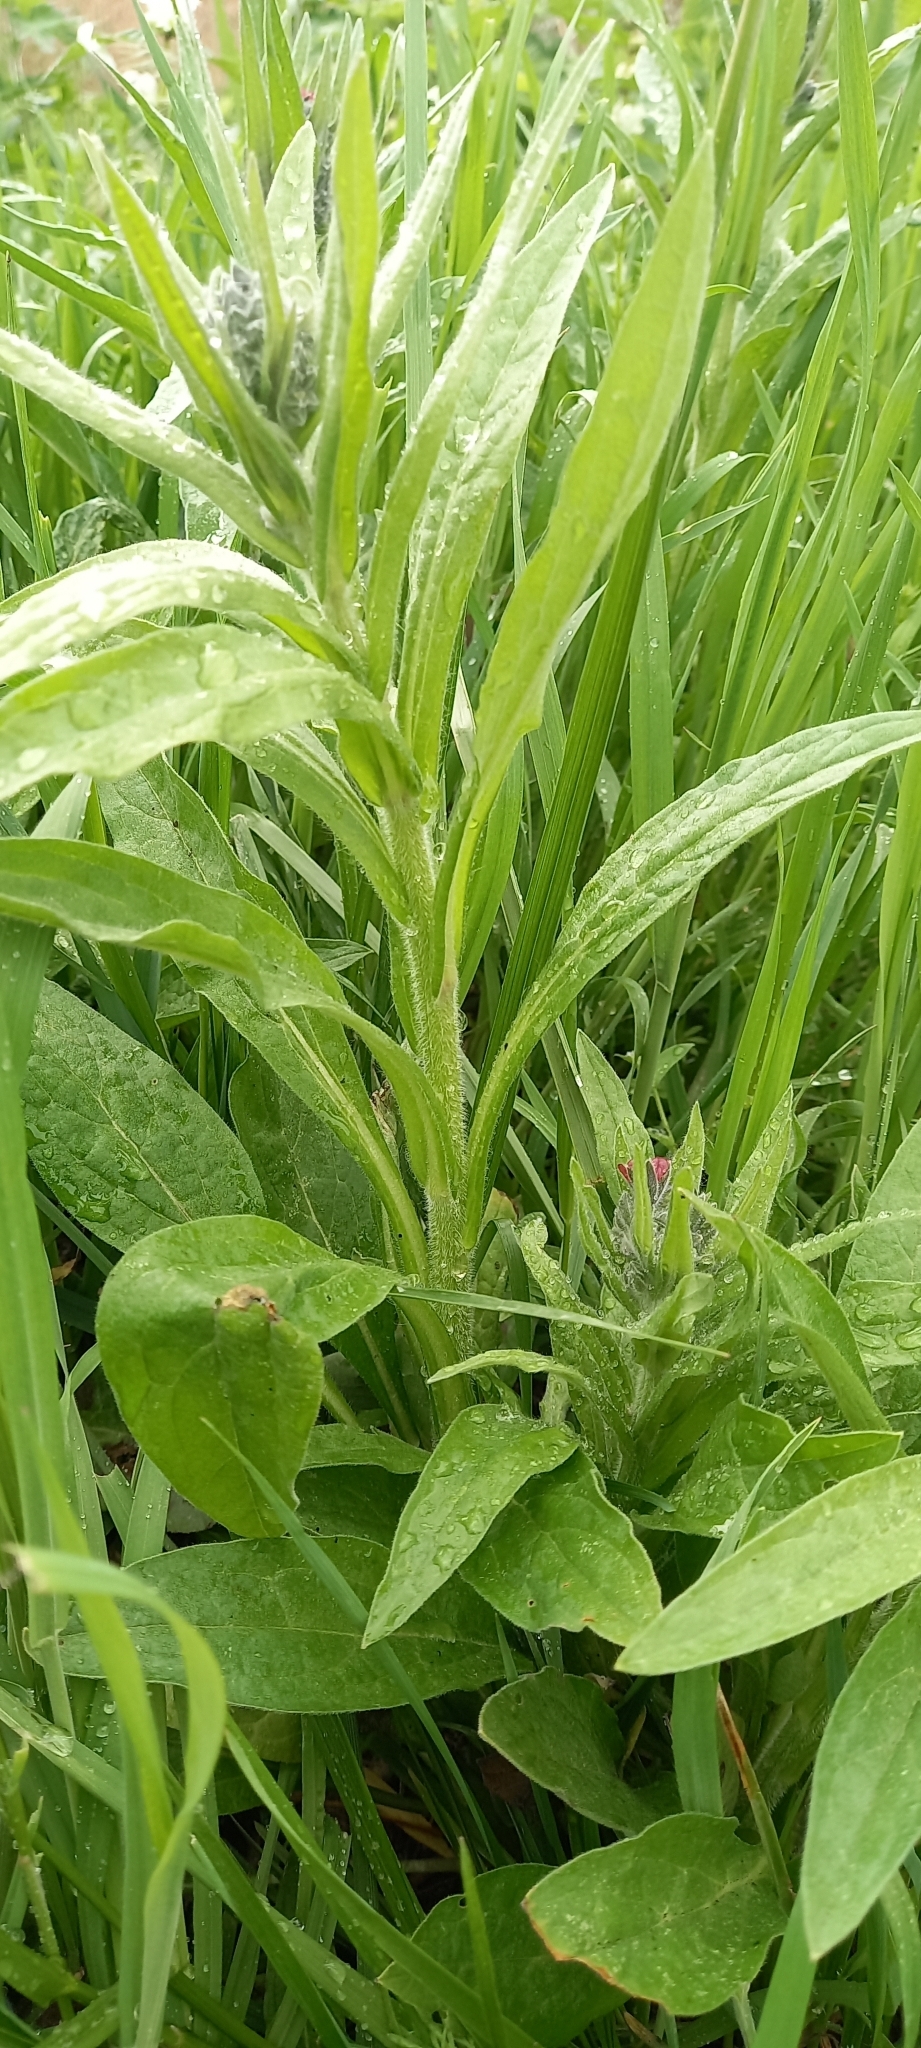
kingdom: Plantae
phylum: Tracheophyta
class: Magnoliopsida
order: Boraginales
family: Boraginaceae
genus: Cynoglossum
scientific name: Cynoglossum officinale
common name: Hound's-tongue
